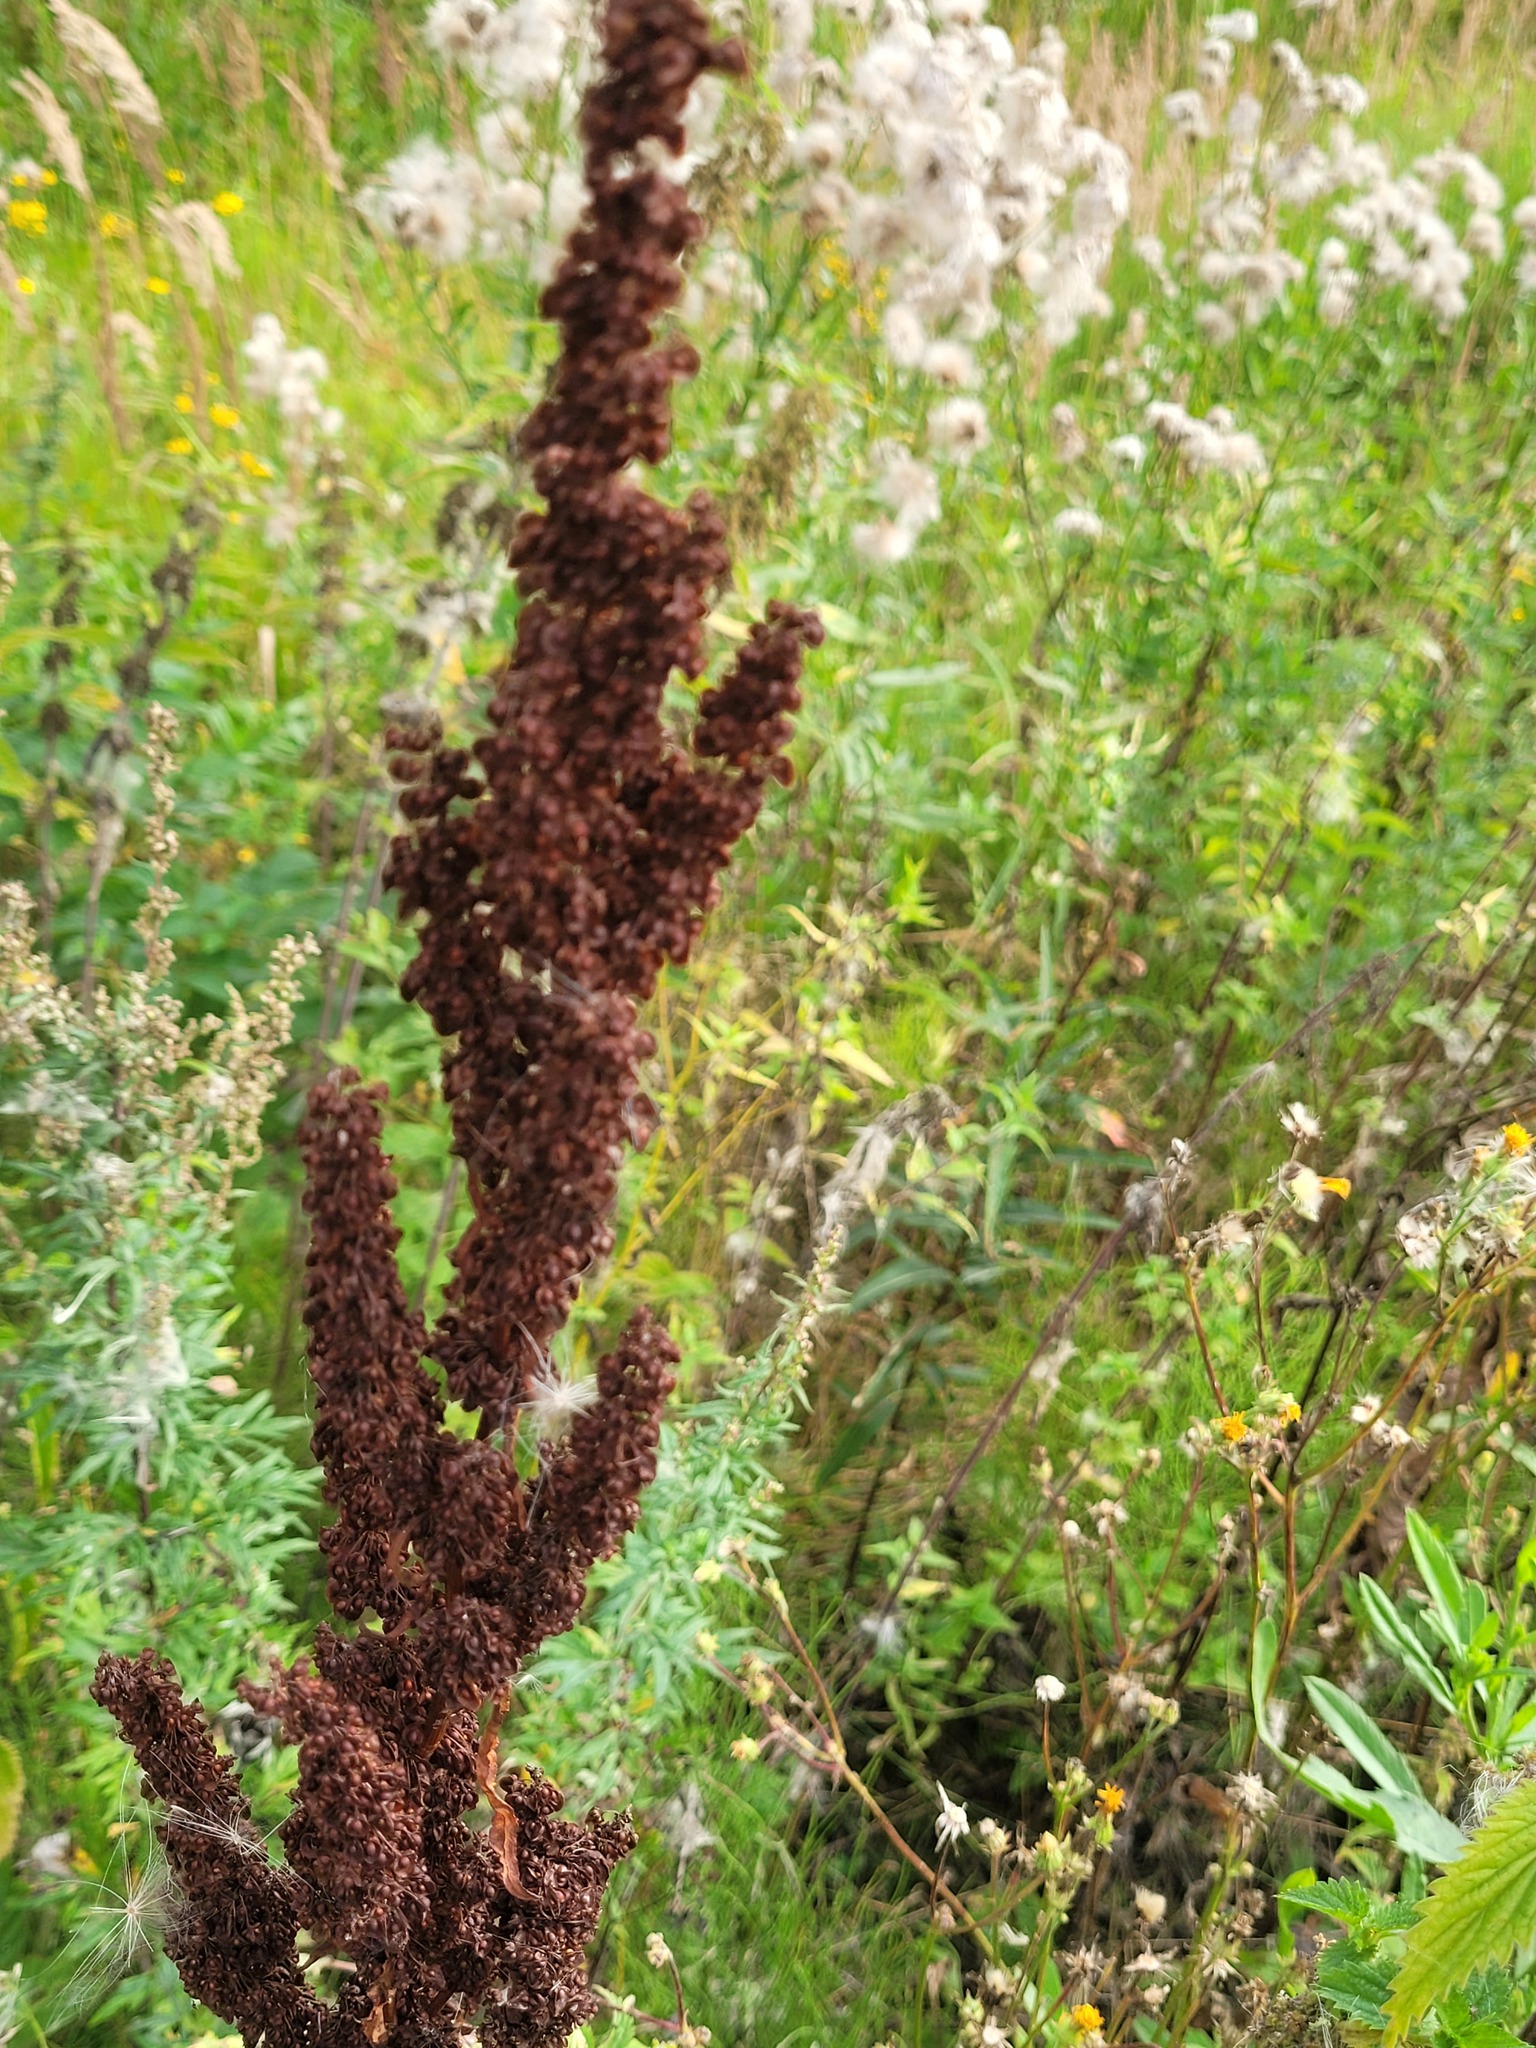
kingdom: Plantae
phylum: Tracheophyta
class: Magnoliopsida
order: Caryophyllales
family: Polygonaceae
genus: Rumex
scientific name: Rumex crispus
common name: Curled dock
